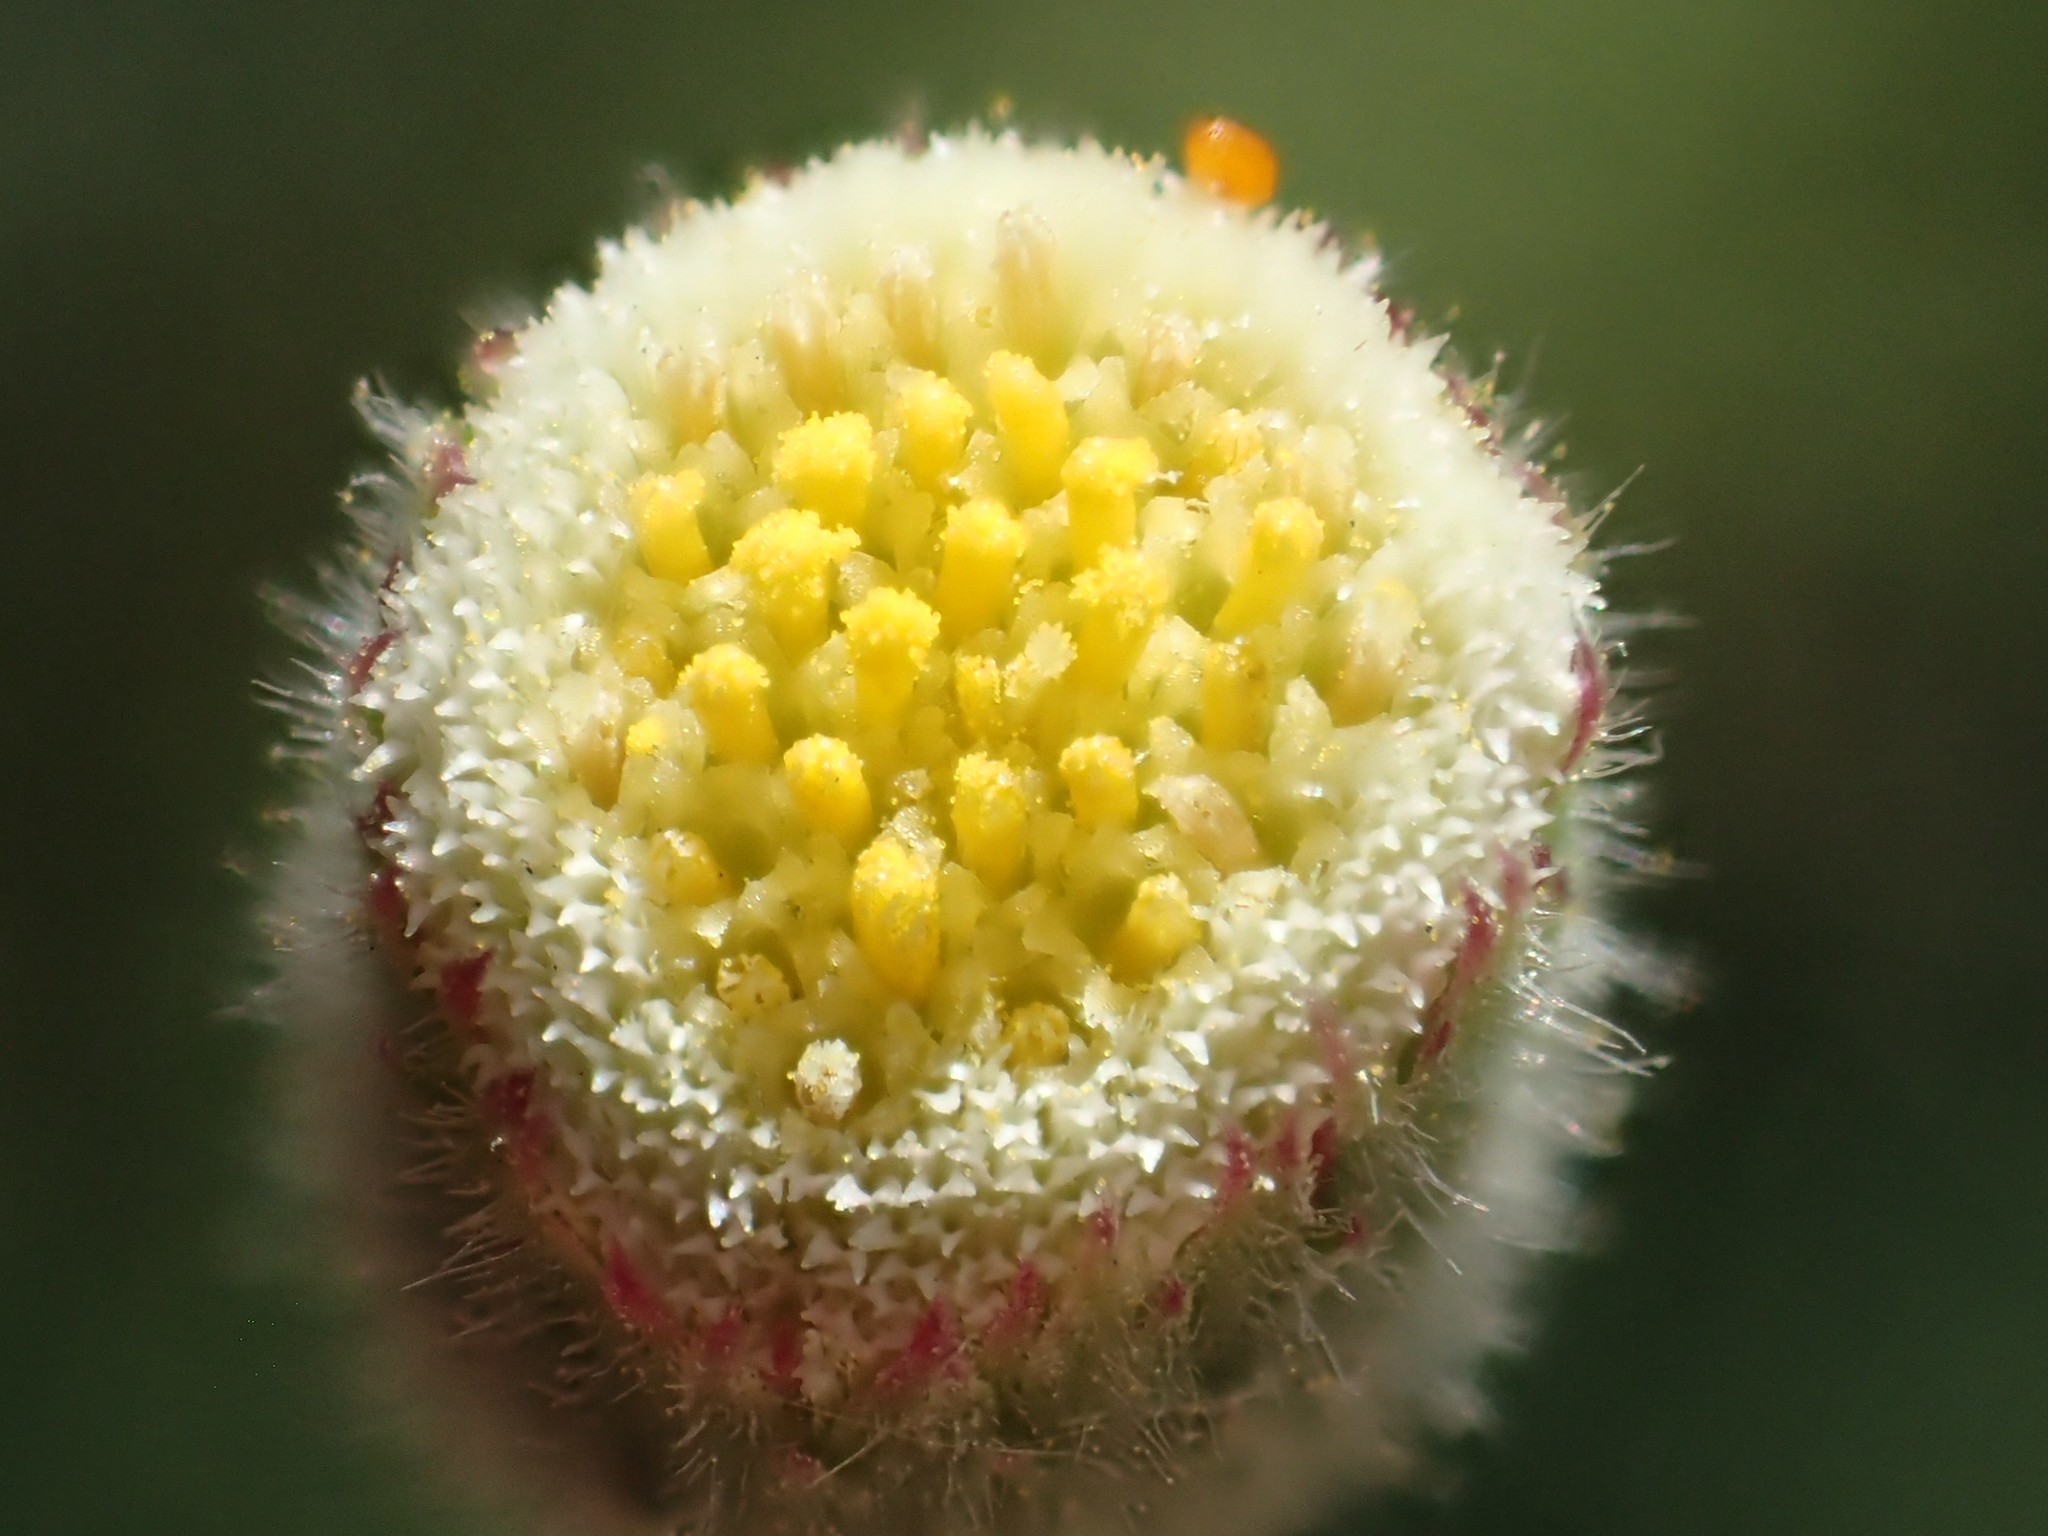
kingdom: Plantae
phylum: Tracheophyta
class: Magnoliopsida
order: Asterales
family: Asteraceae
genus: Erigeron
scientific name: Erigeron bonariensis
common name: Argentine fleabane
